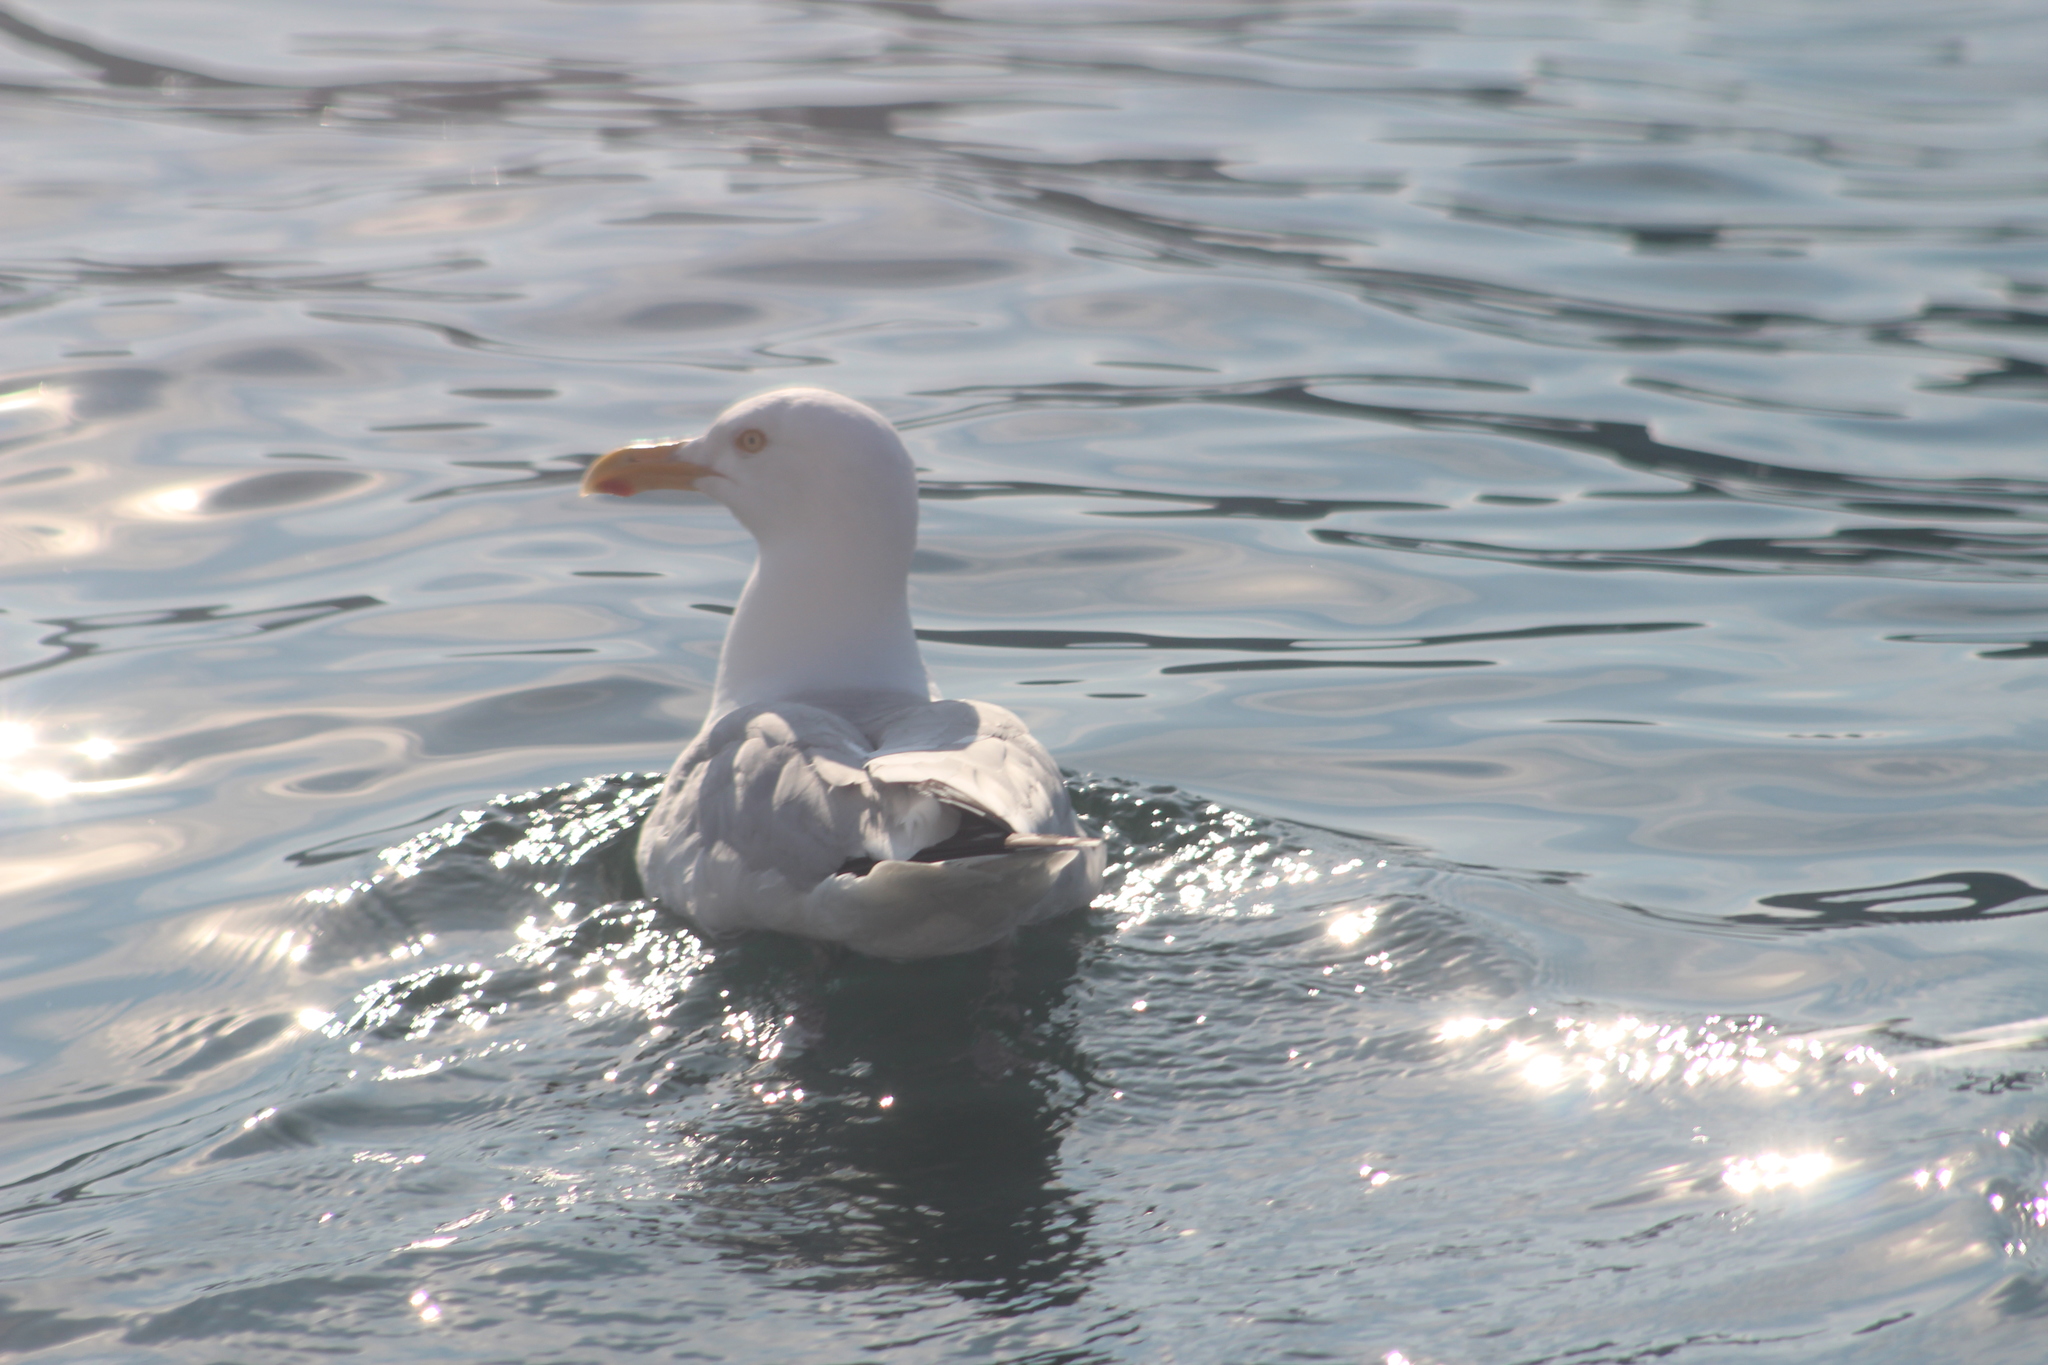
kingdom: Animalia
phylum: Chordata
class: Aves
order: Charadriiformes
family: Laridae
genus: Larus
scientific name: Larus argentatus
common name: Herring gull
